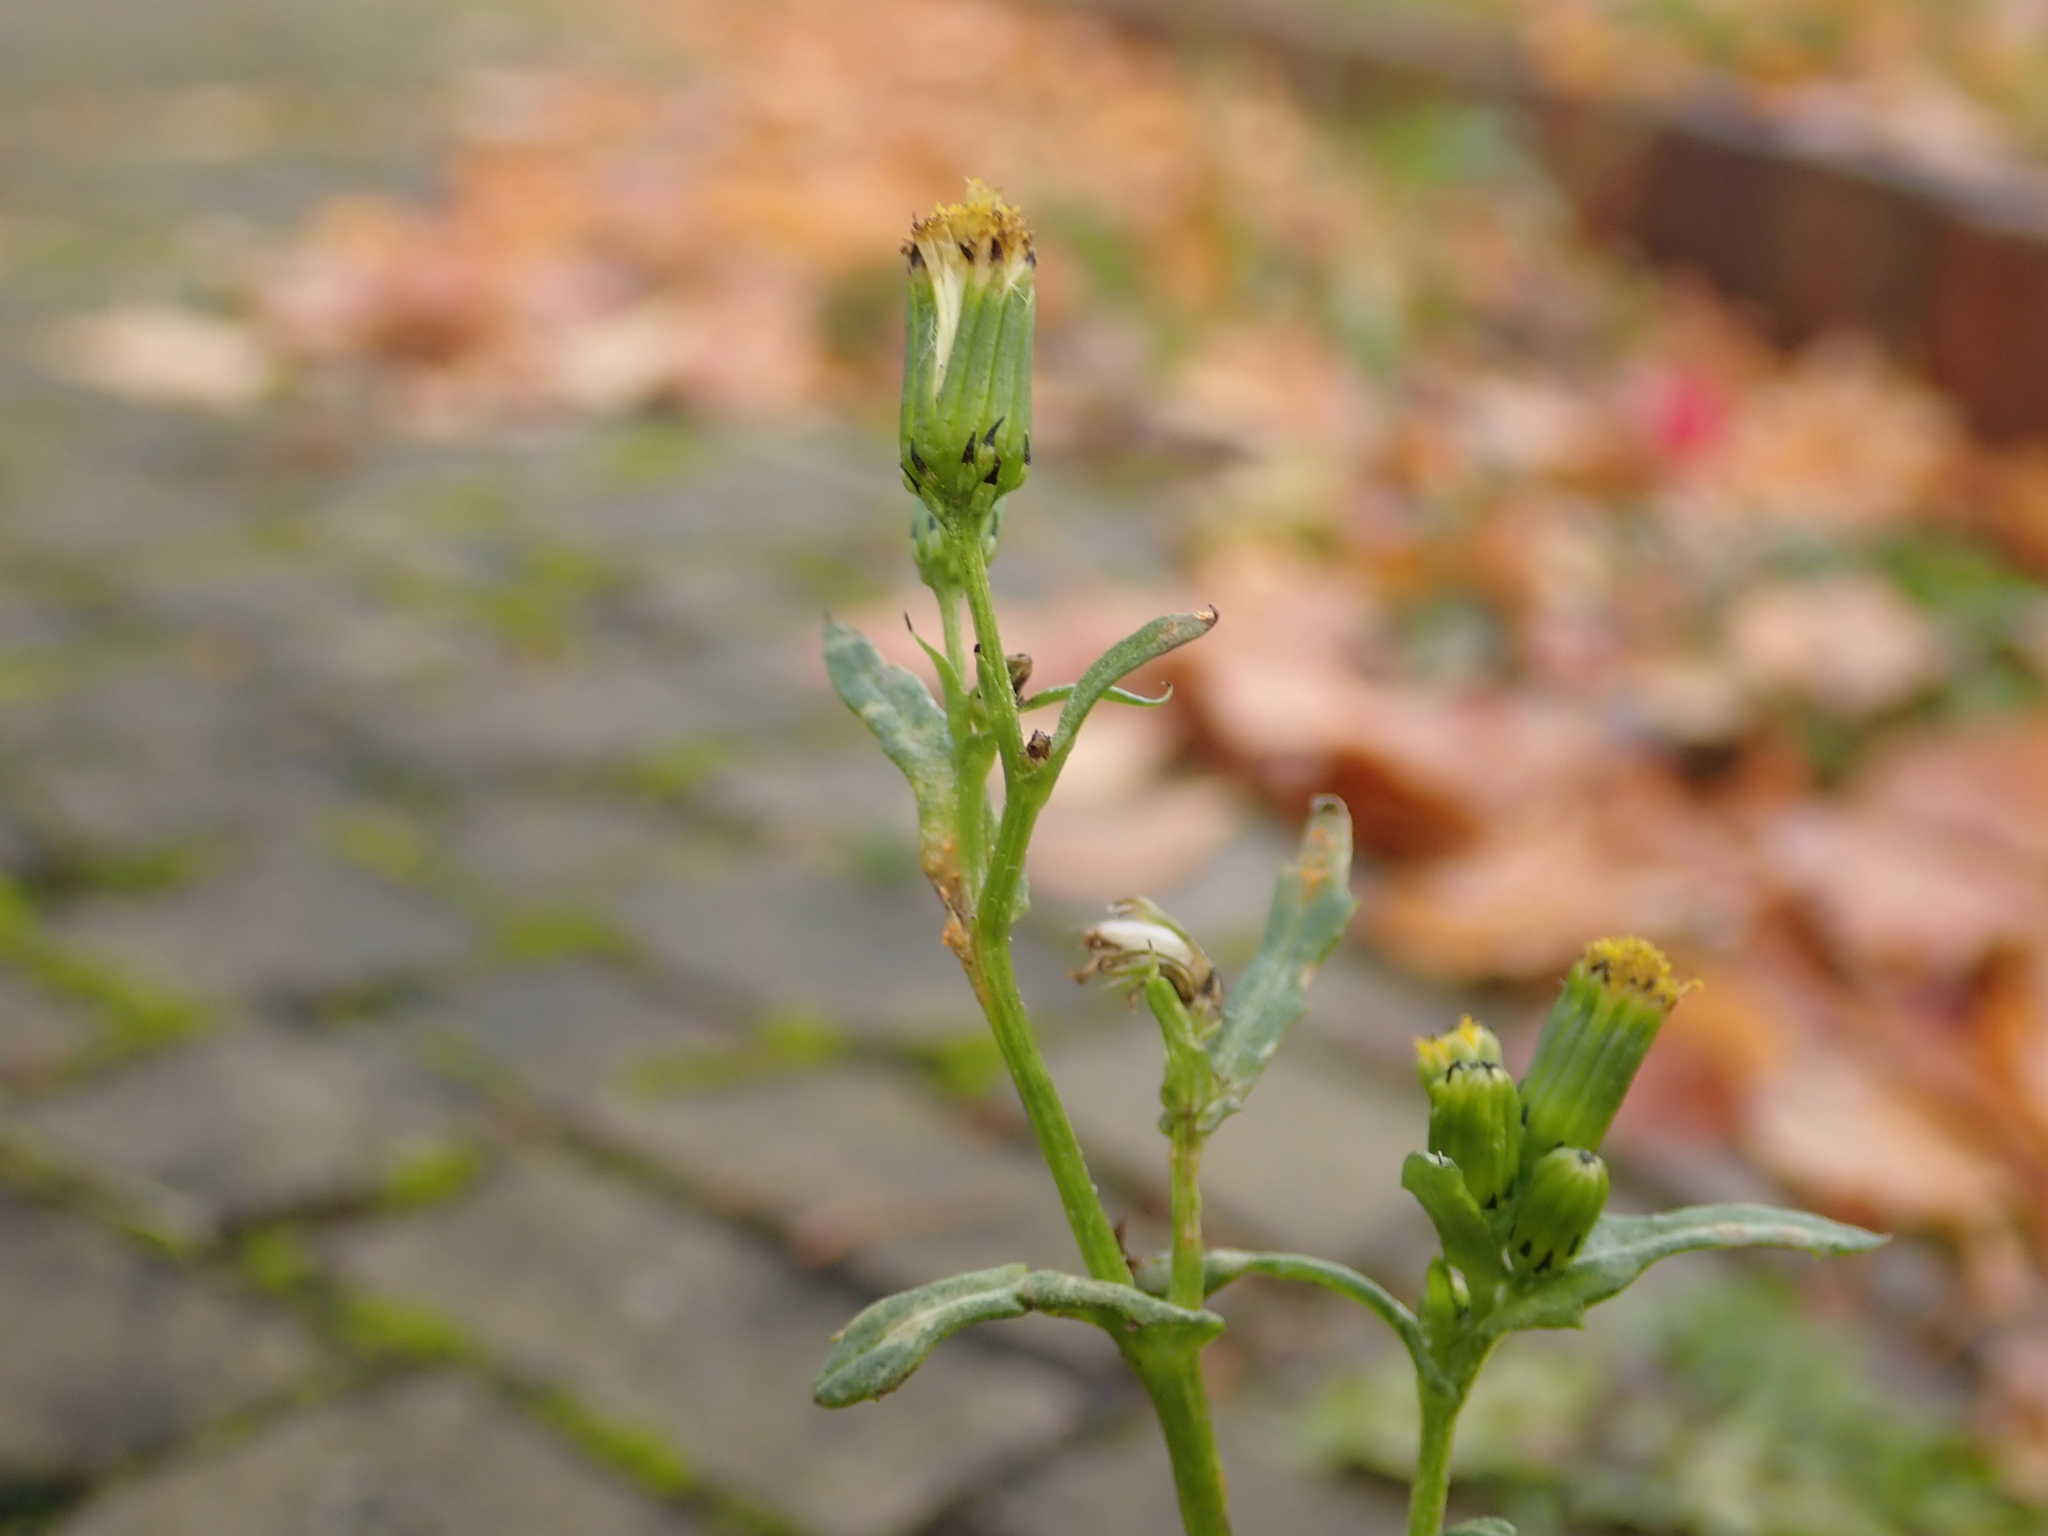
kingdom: Plantae
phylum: Tracheophyta
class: Magnoliopsida
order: Asterales
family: Asteraceae
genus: Senecio
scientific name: Senecio vulgaris
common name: Old-man-in-the-spring
